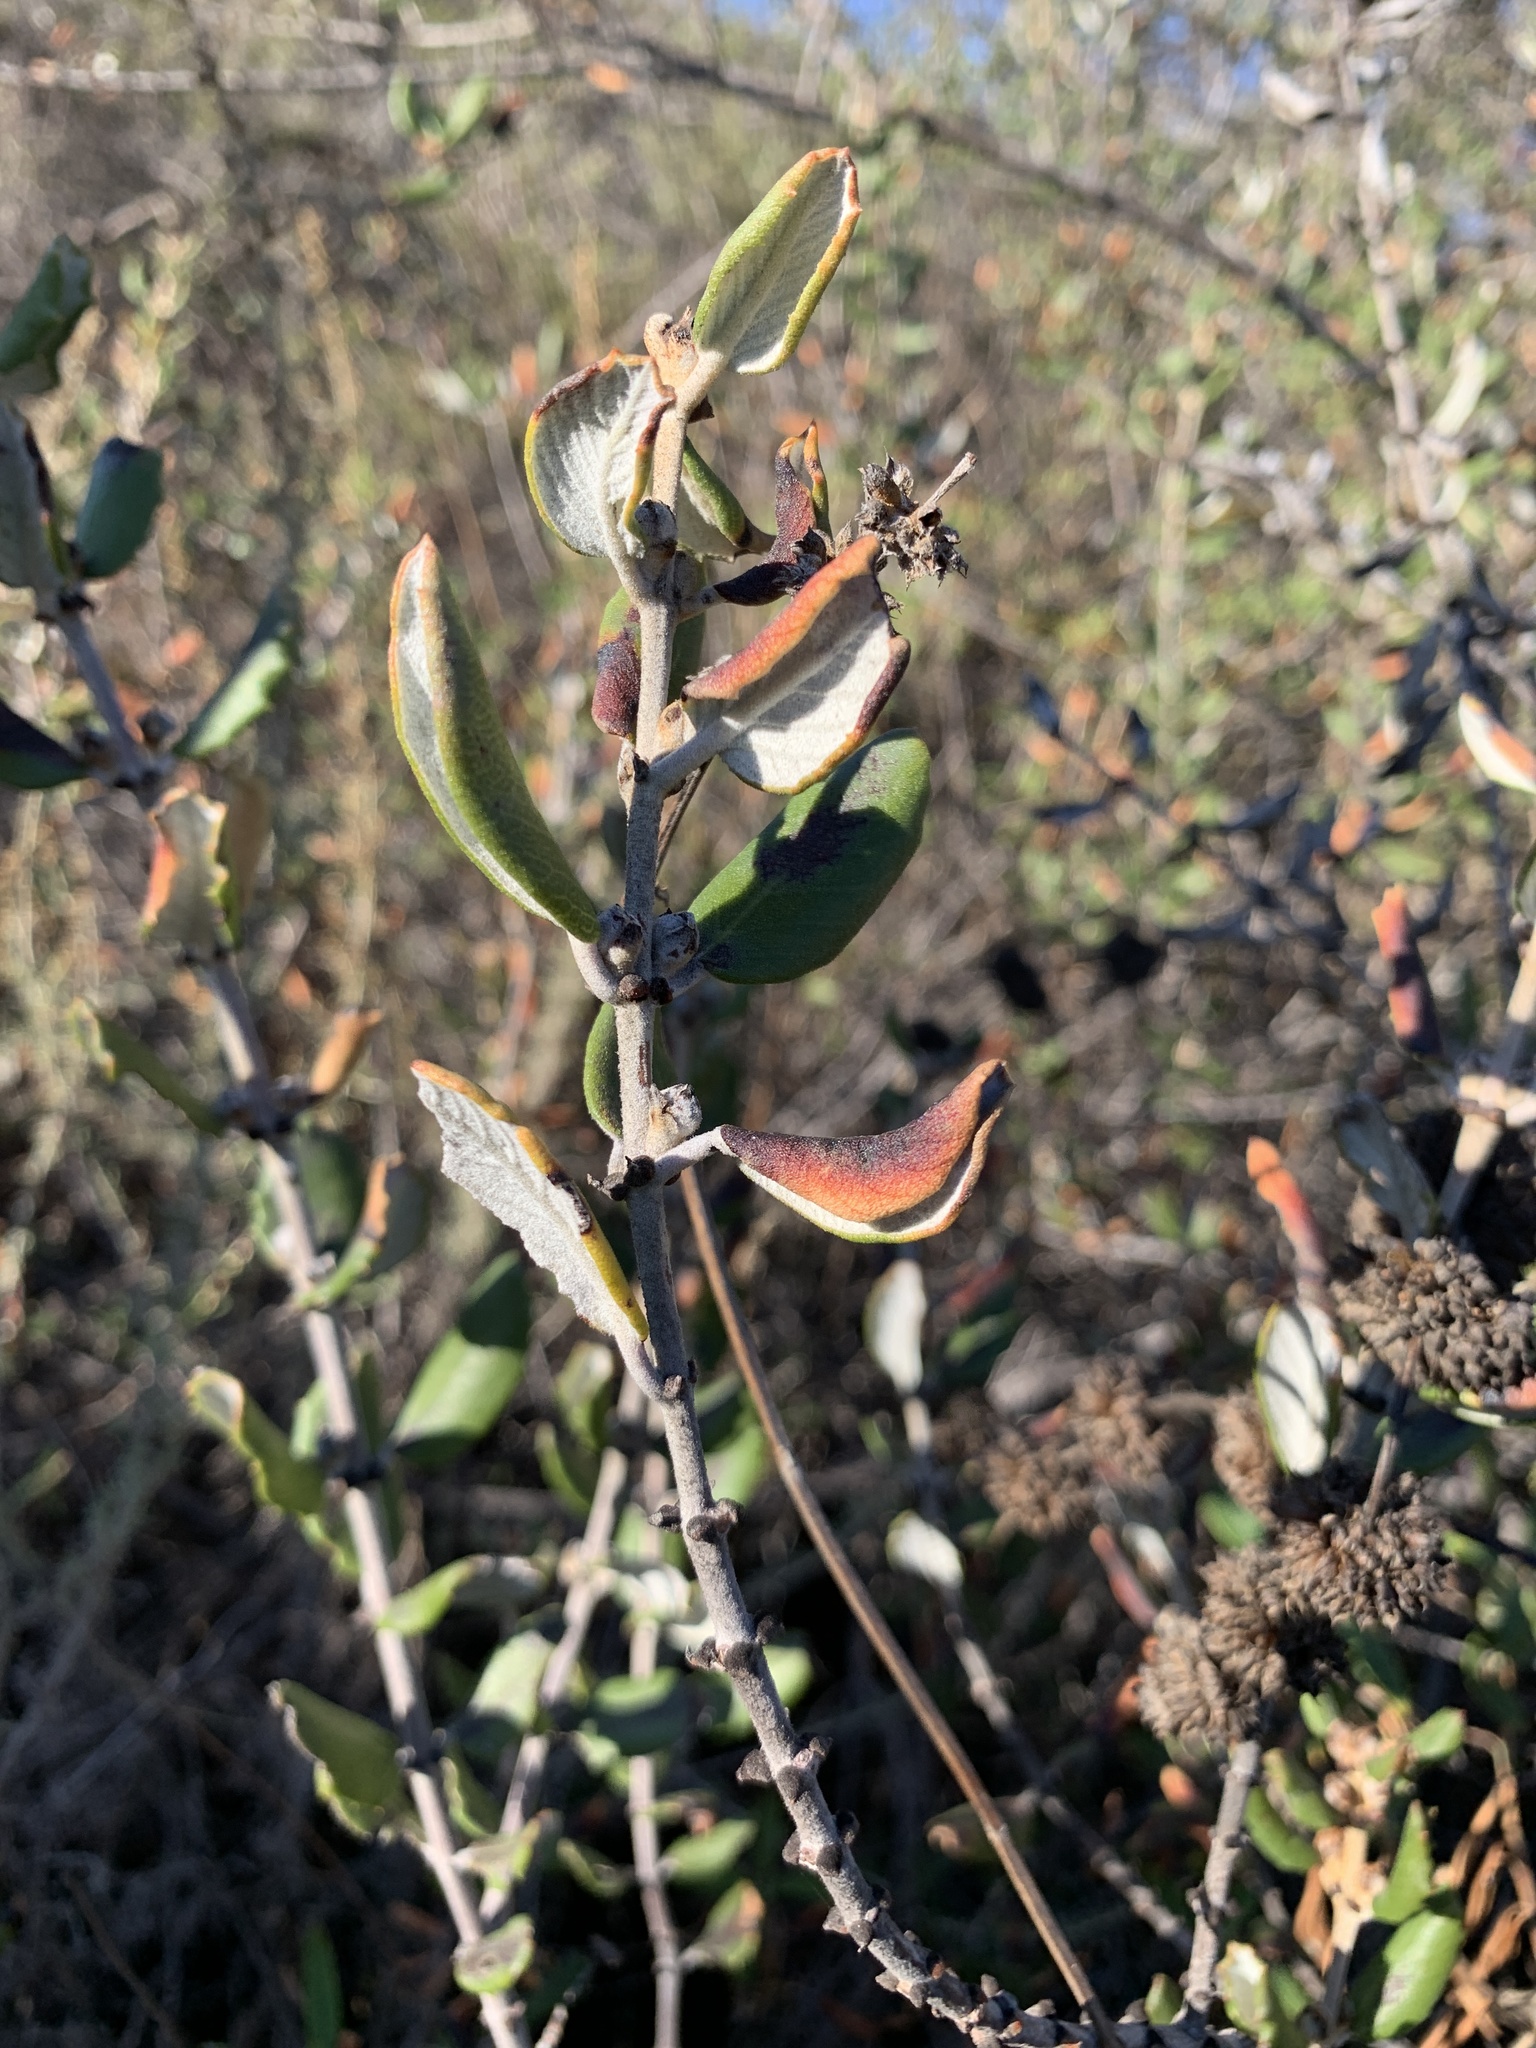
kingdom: Plantae
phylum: Tracheophyta
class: Magnoliopsida
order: Rosales
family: Rhamnaceae
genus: Ceanothus
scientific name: Ceanothus crassifolius
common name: Hoaryleaf ceanothus
